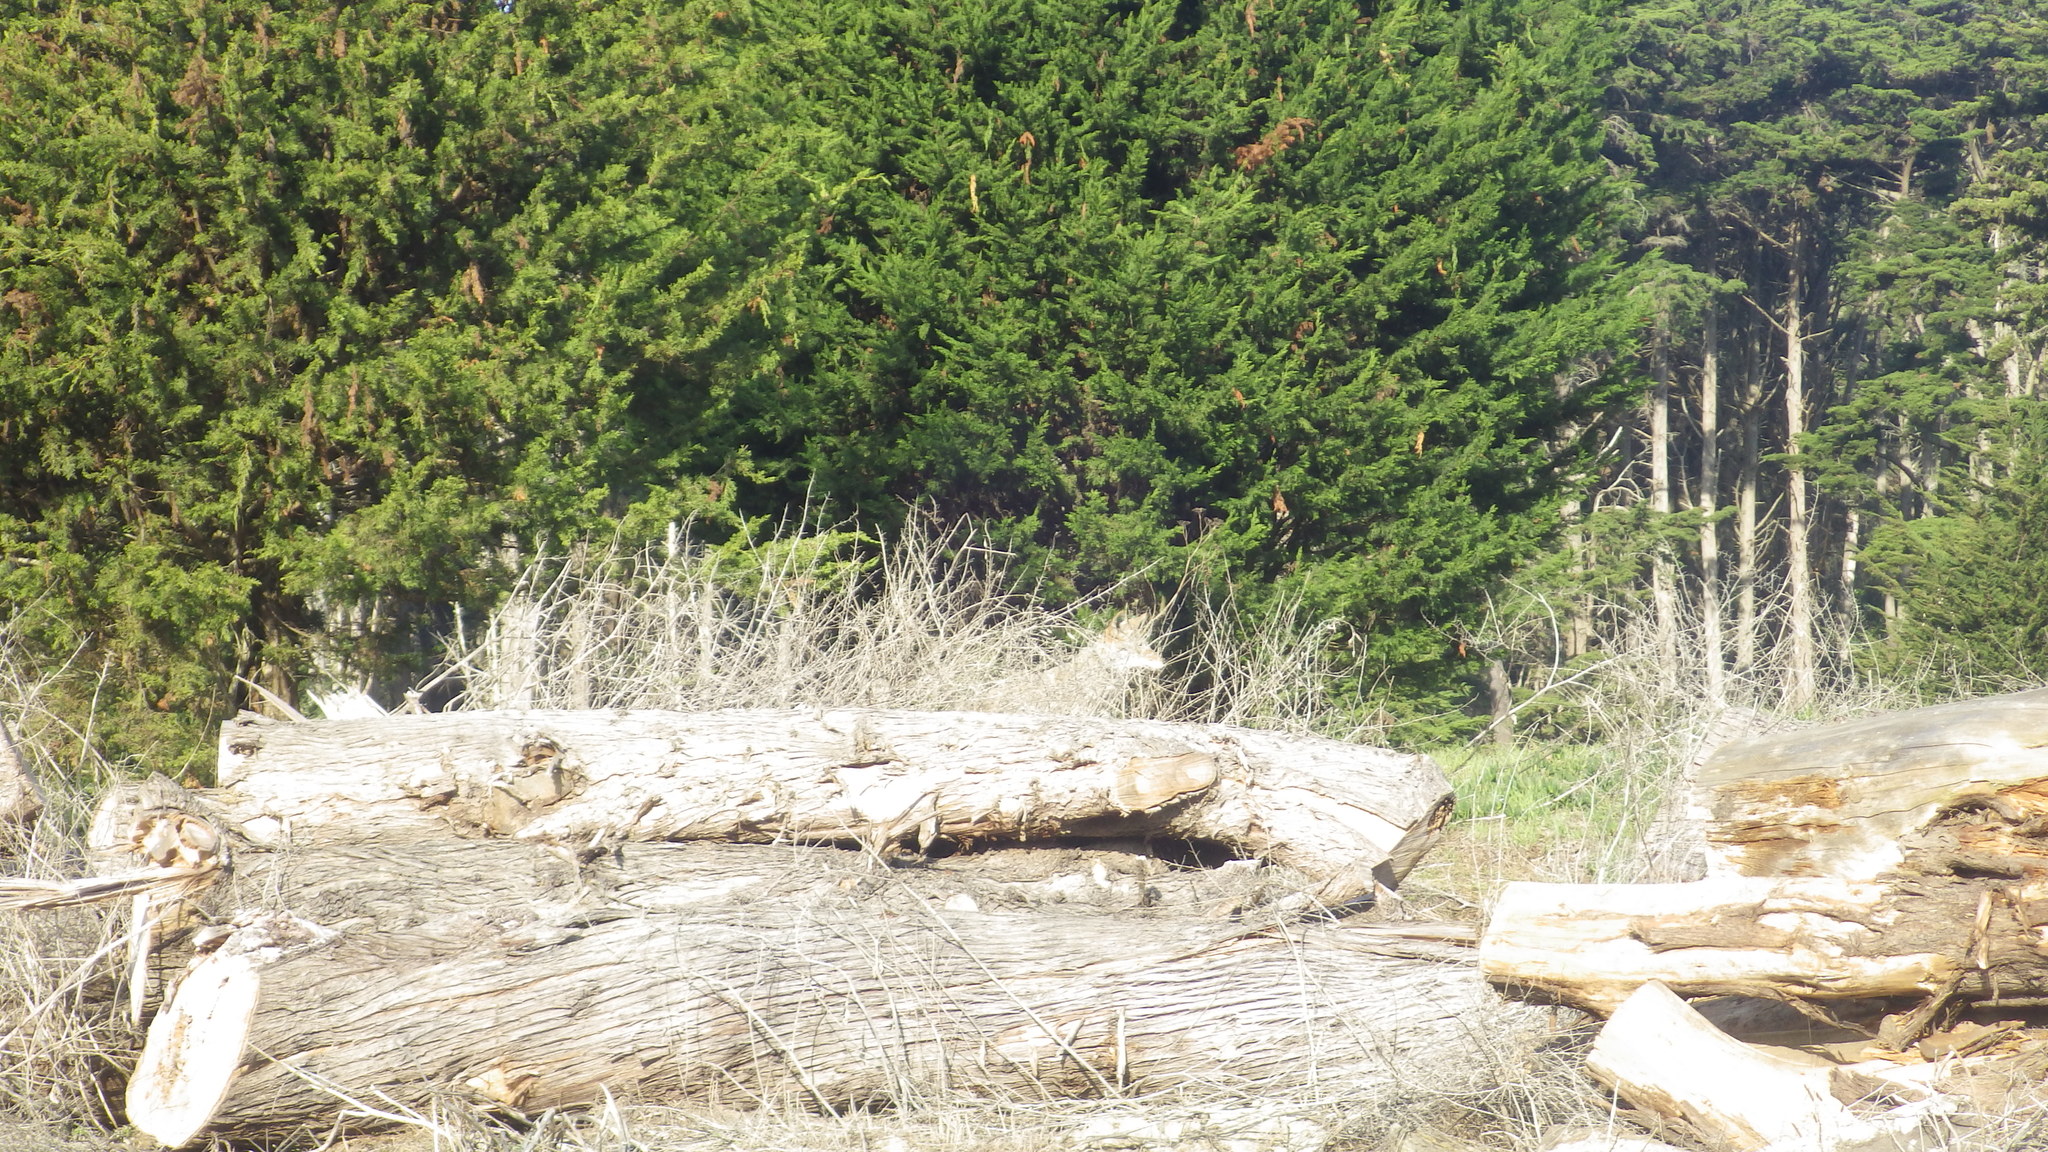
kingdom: Animalia
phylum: Chordata
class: Mammalia
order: Carnivora
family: Canidae
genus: Canis
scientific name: Canis latrans
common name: Coyote
